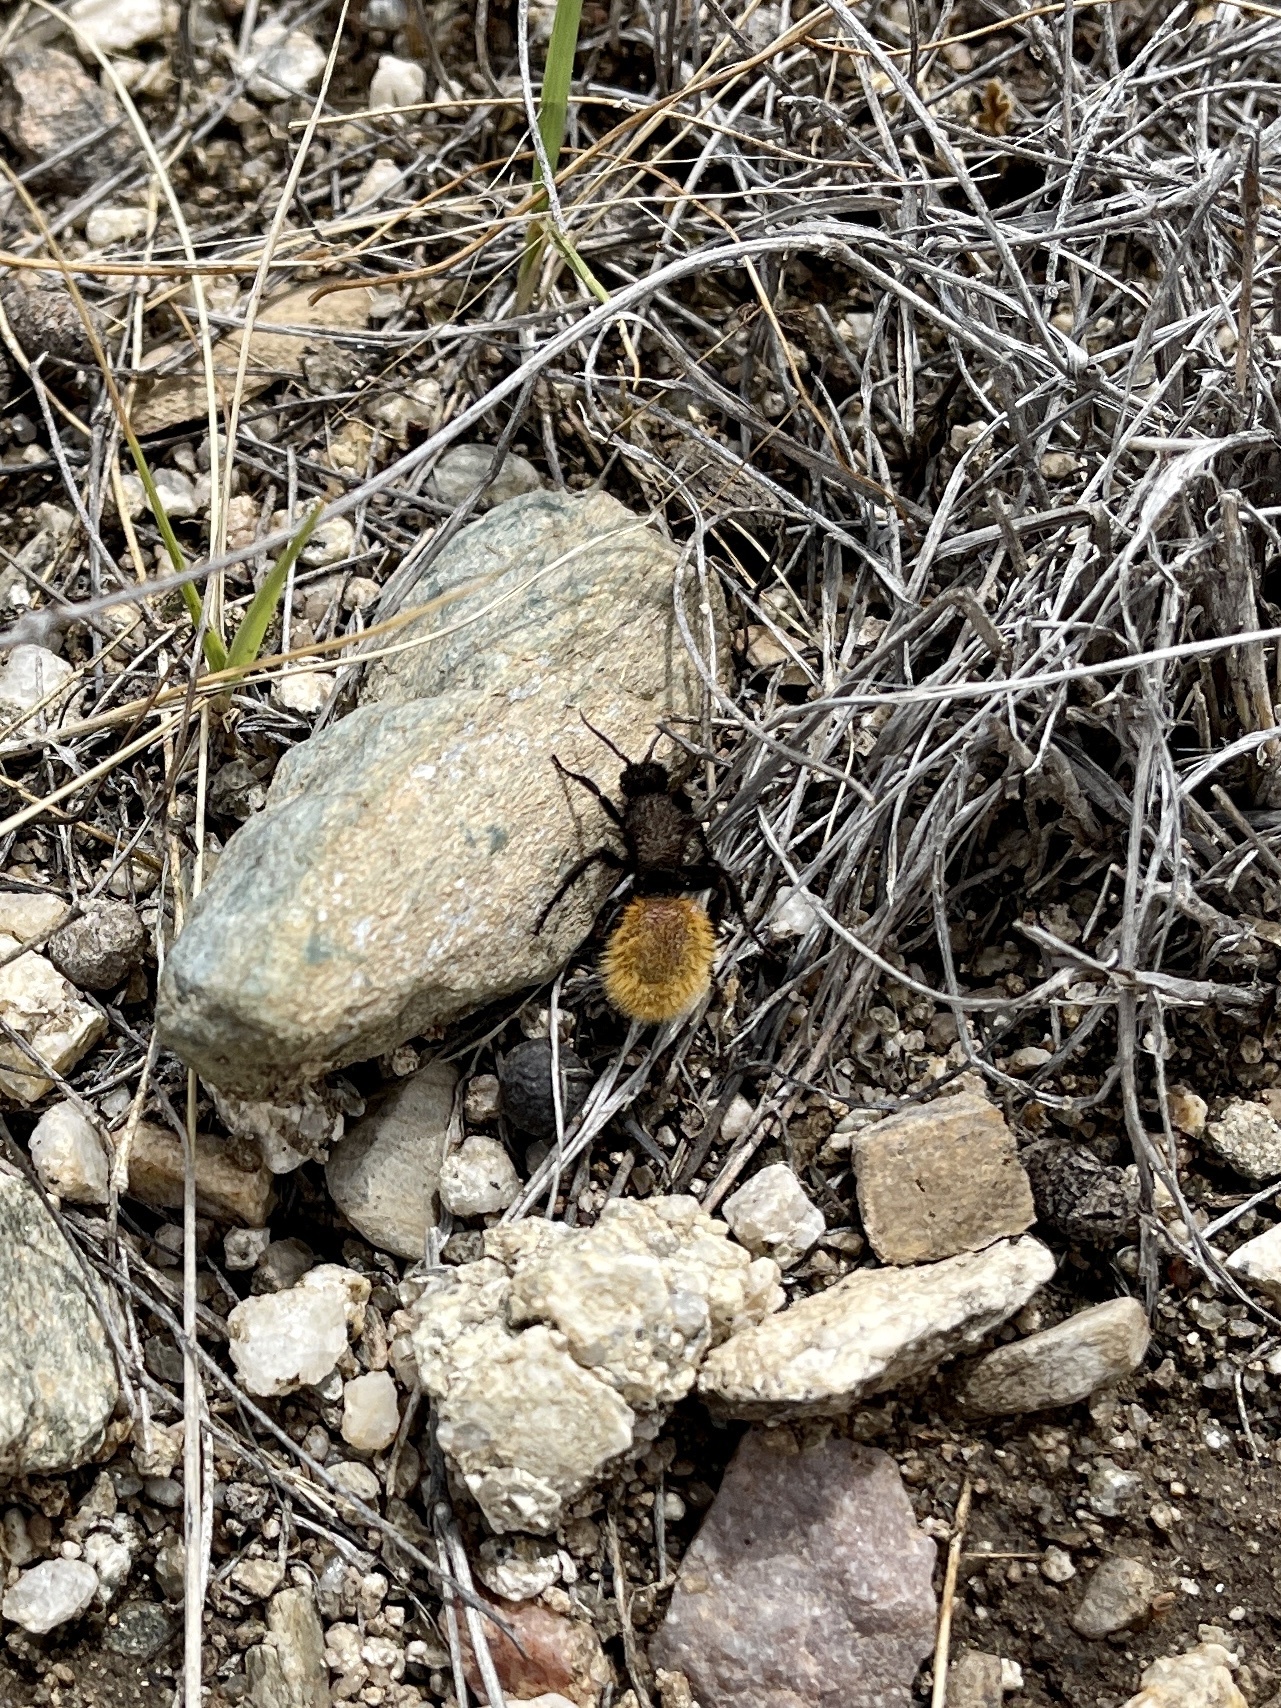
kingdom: Animalia
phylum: Arthropoda
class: Insecta
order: Hymenoptera
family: Mutillidae
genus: Dasymutilla
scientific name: Dasymutilla magnifica
